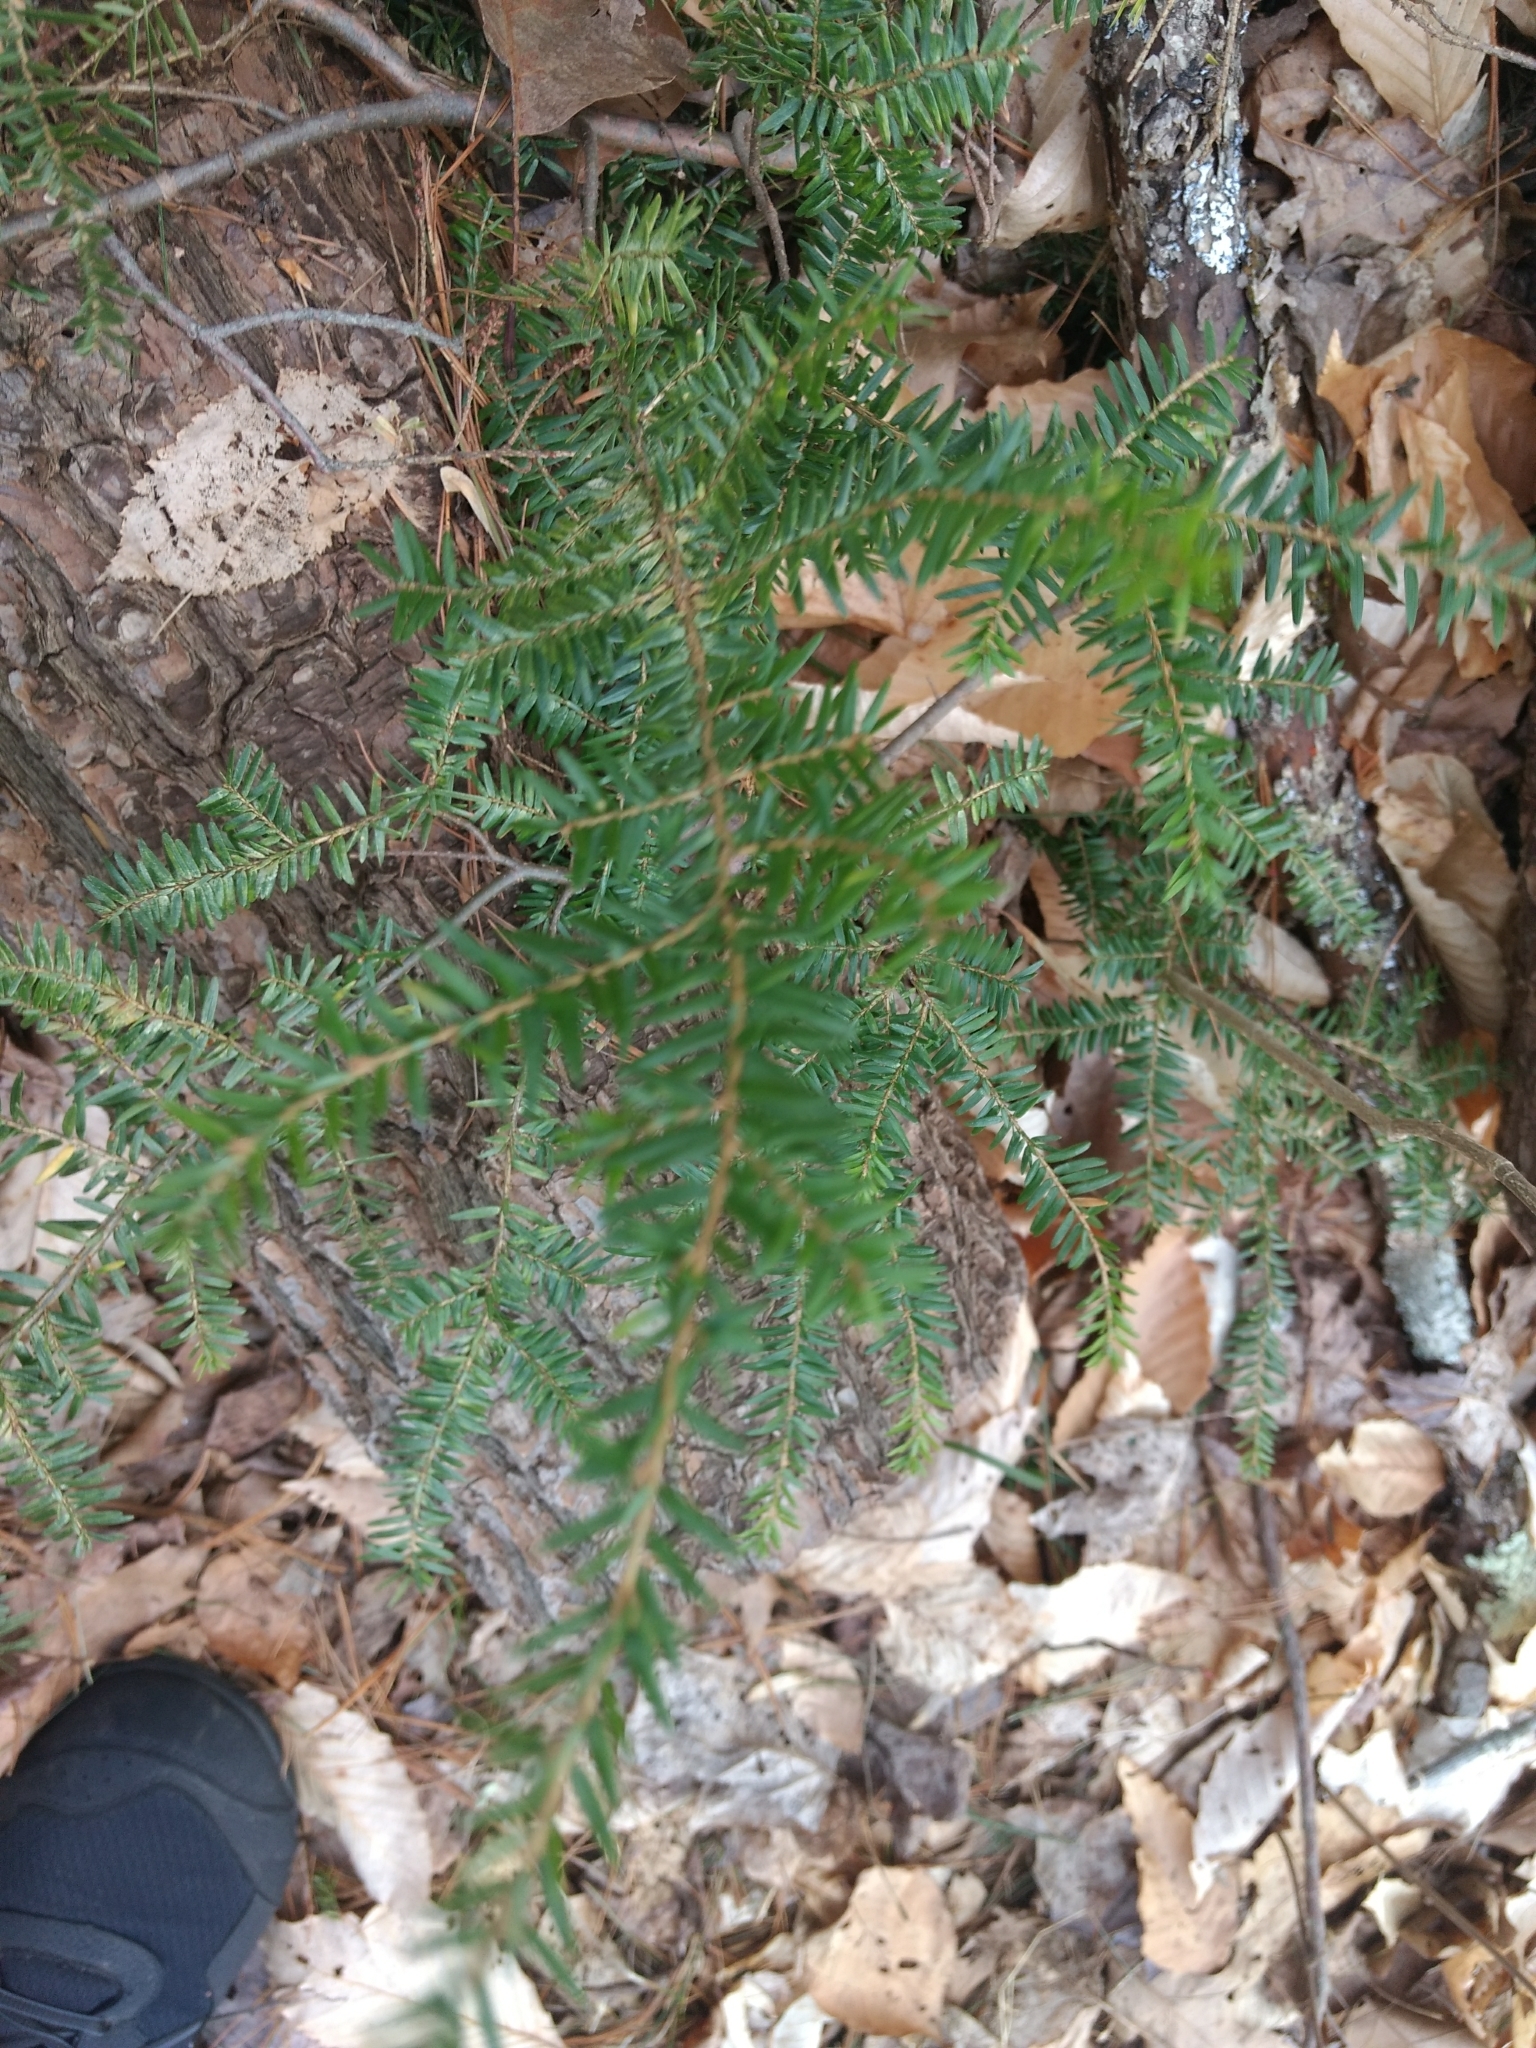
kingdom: Plantae
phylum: Tracheophyta
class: Pinopsida
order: Pinales
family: Pinaceae
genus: Tsuga
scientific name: Tsuga canadensis
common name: Eastern hemlock
